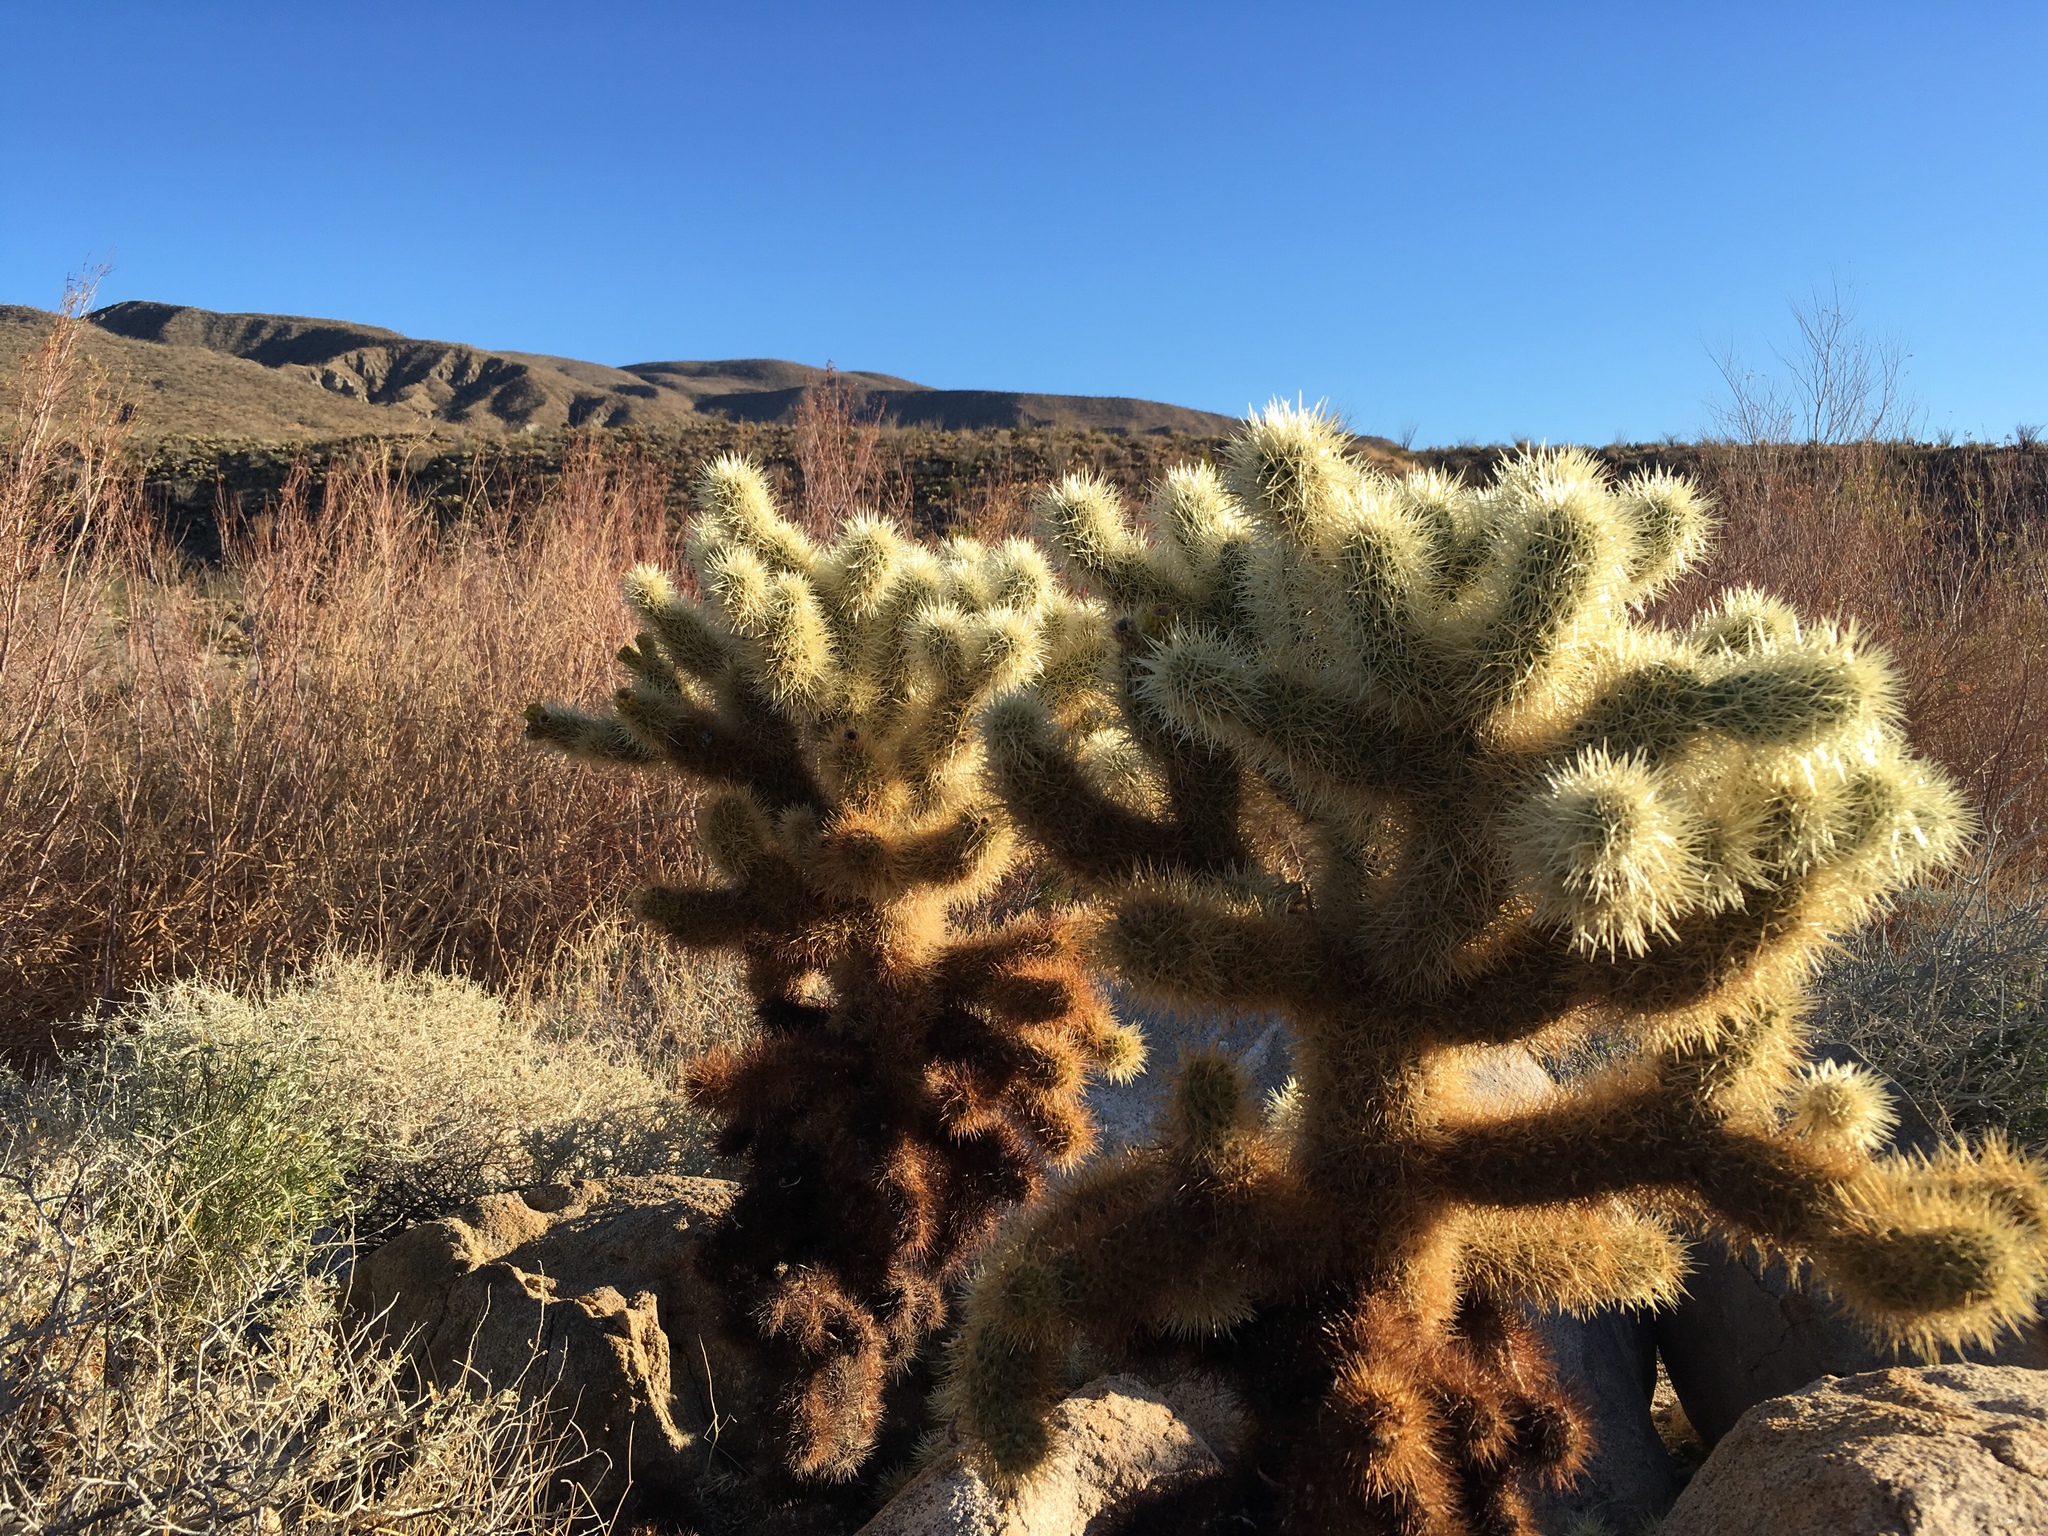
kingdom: Plantae
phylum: Tracheophyta
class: Magnoliopsida
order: Caryophyllales
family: Cactaceae
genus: Cylindropuntia
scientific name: Cylindropuntia fosbergii
